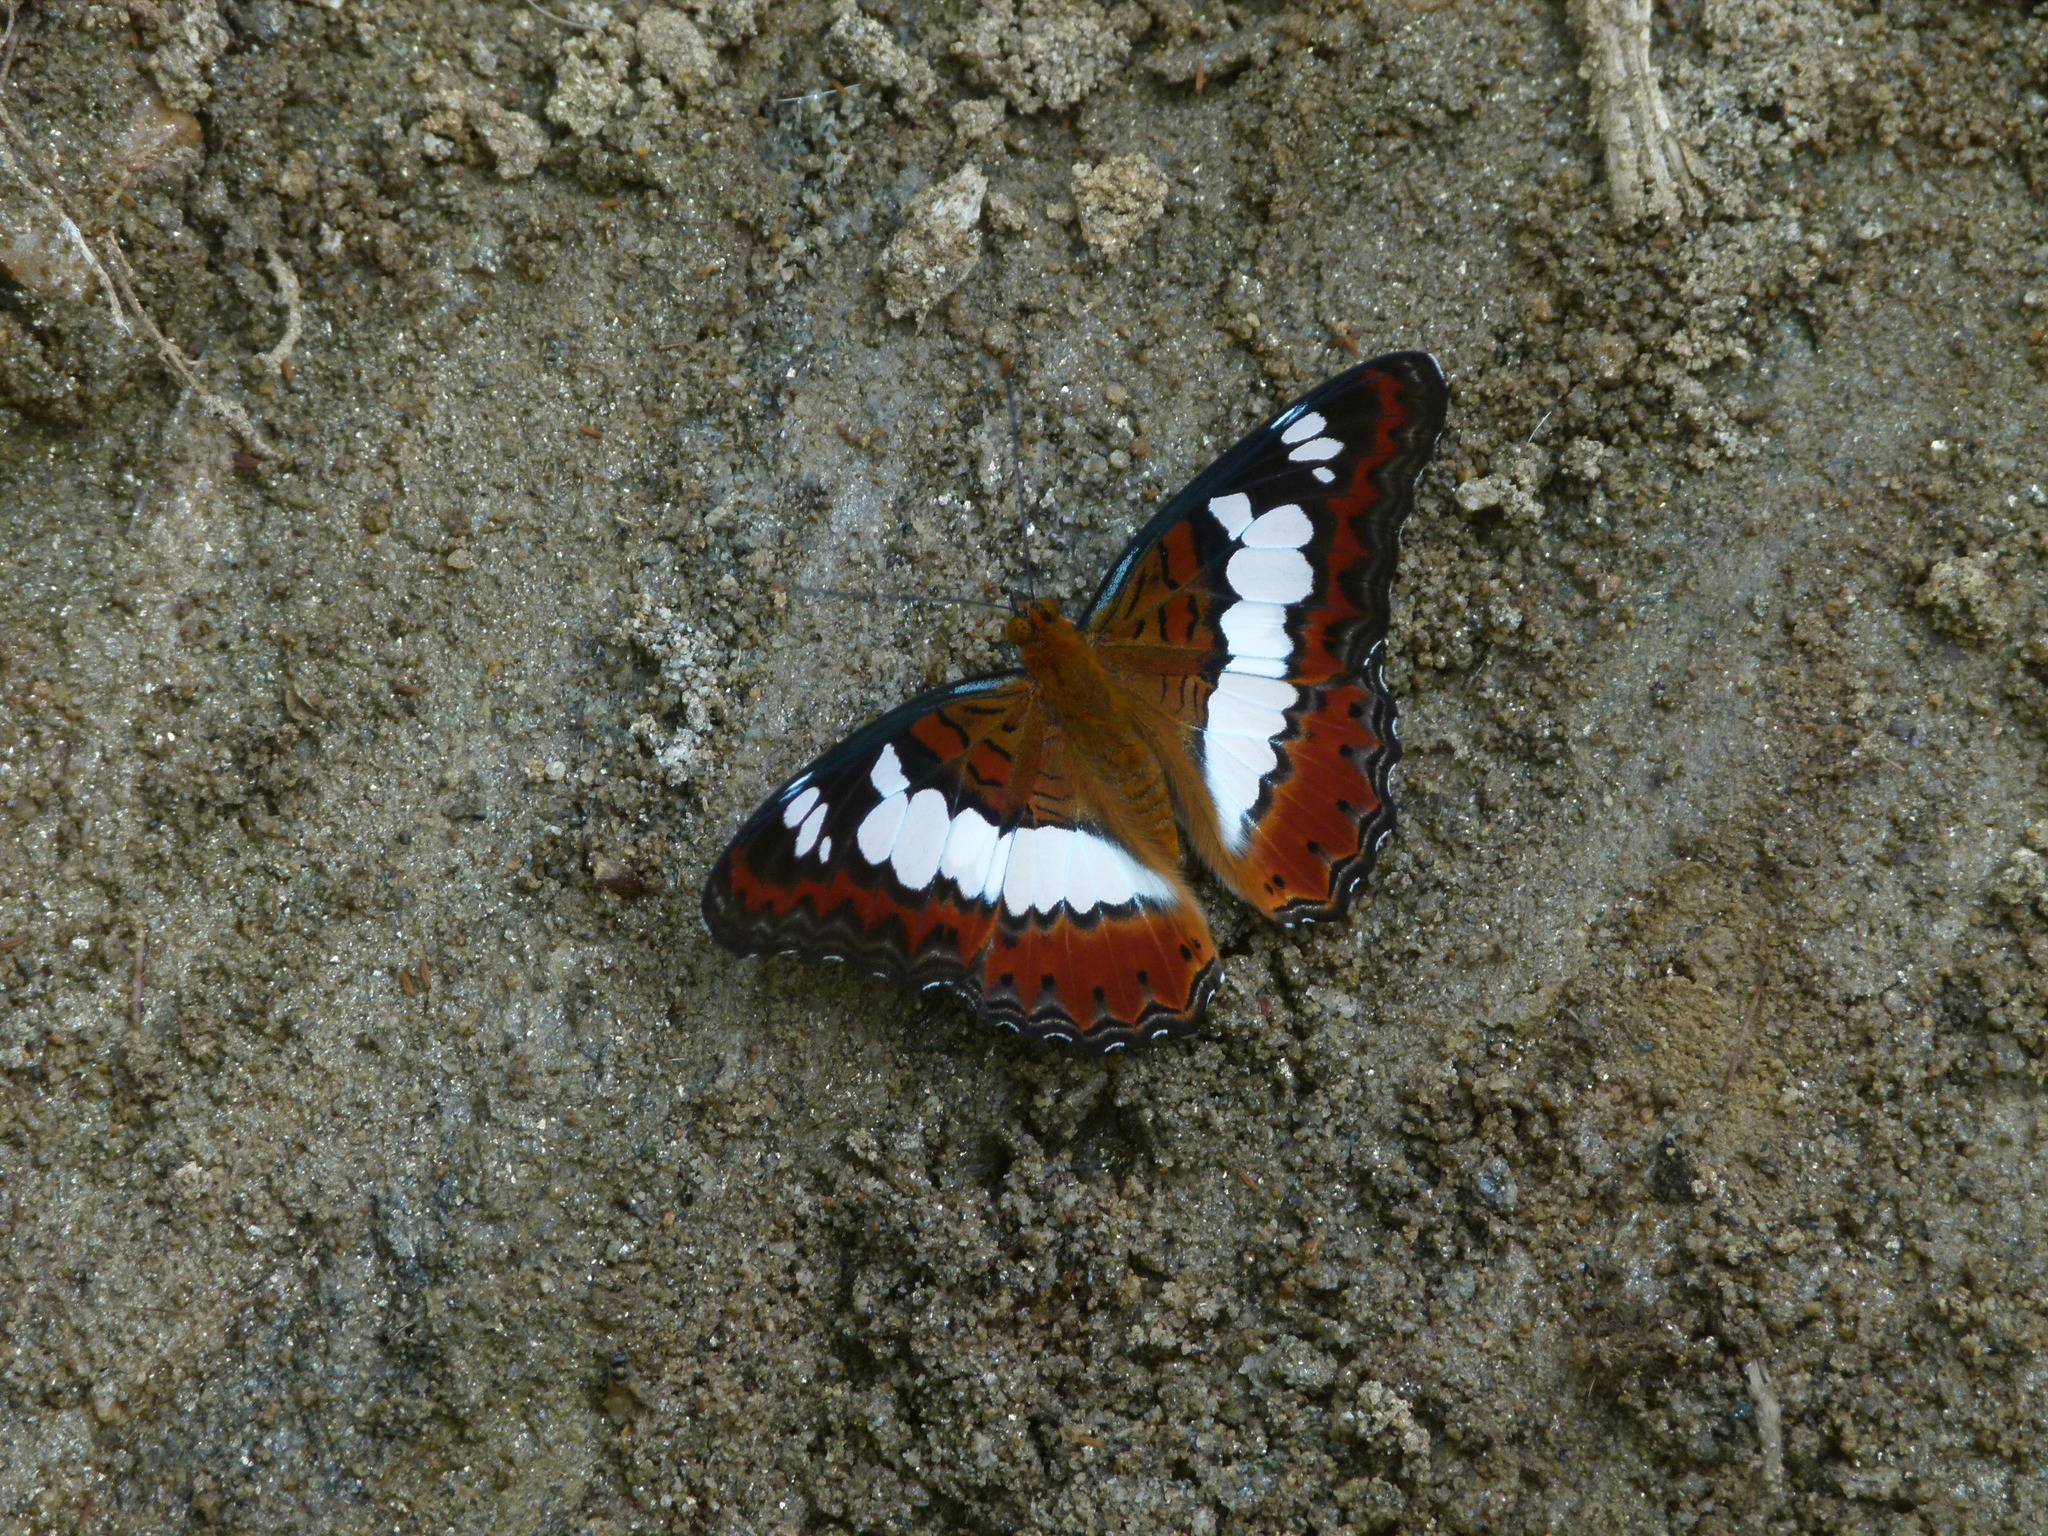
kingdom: Animalia
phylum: Arthropoda
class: Insecta
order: Lepidoptera
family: Nymphalidae
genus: Limenitis
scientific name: Limenitis Moduza procris
